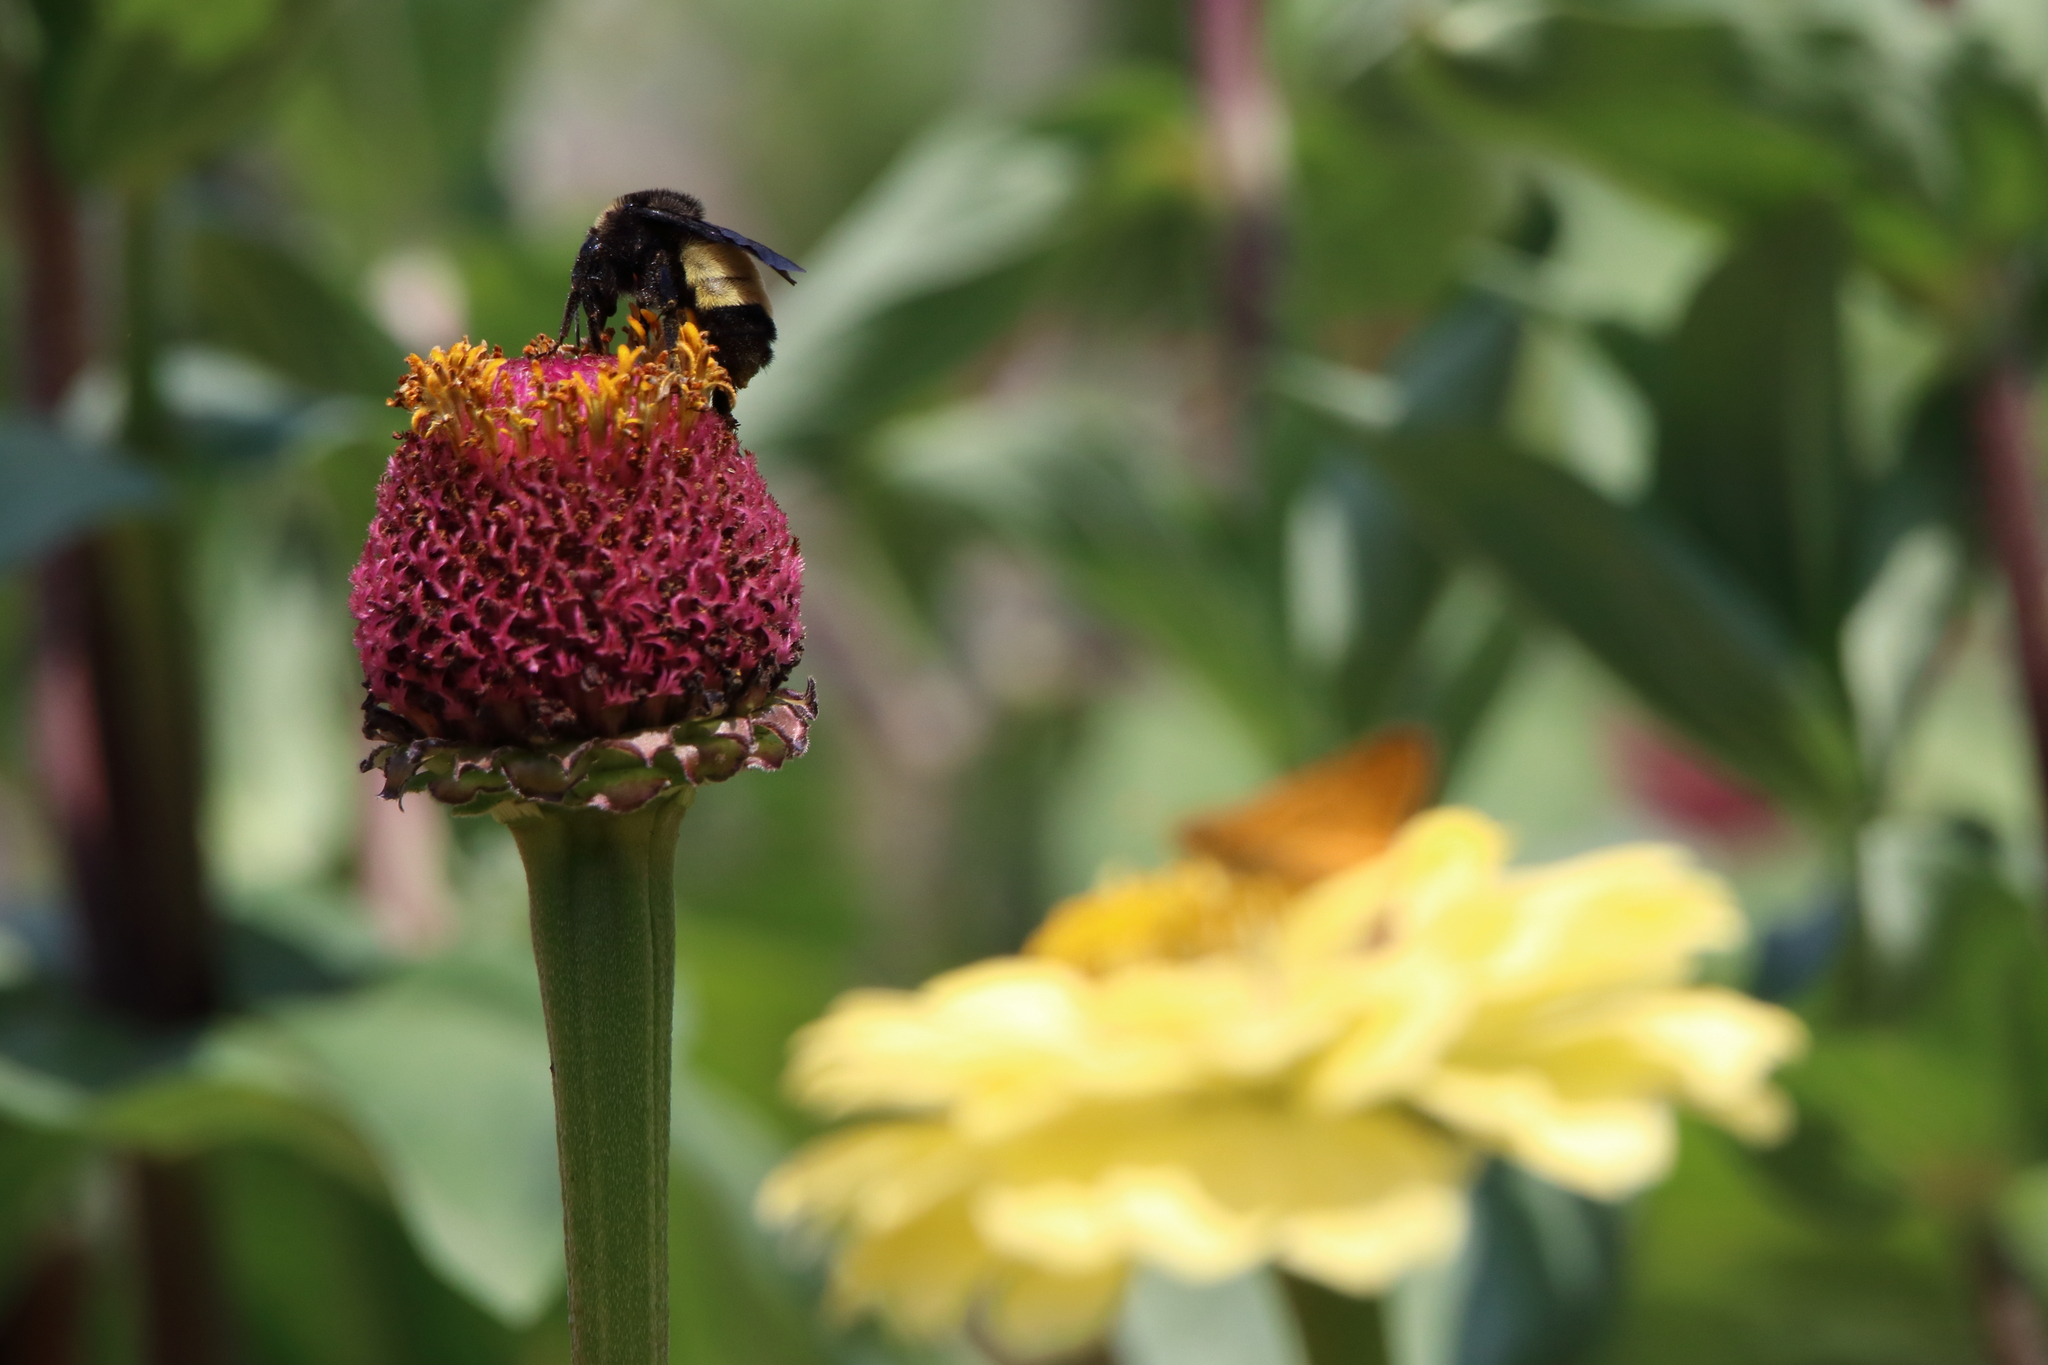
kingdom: Animalia
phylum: Arthropoda
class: Insecta
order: Hymenoptera
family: Apidae
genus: Bombus
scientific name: Bombus pensylvanicus
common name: Bumble bee
